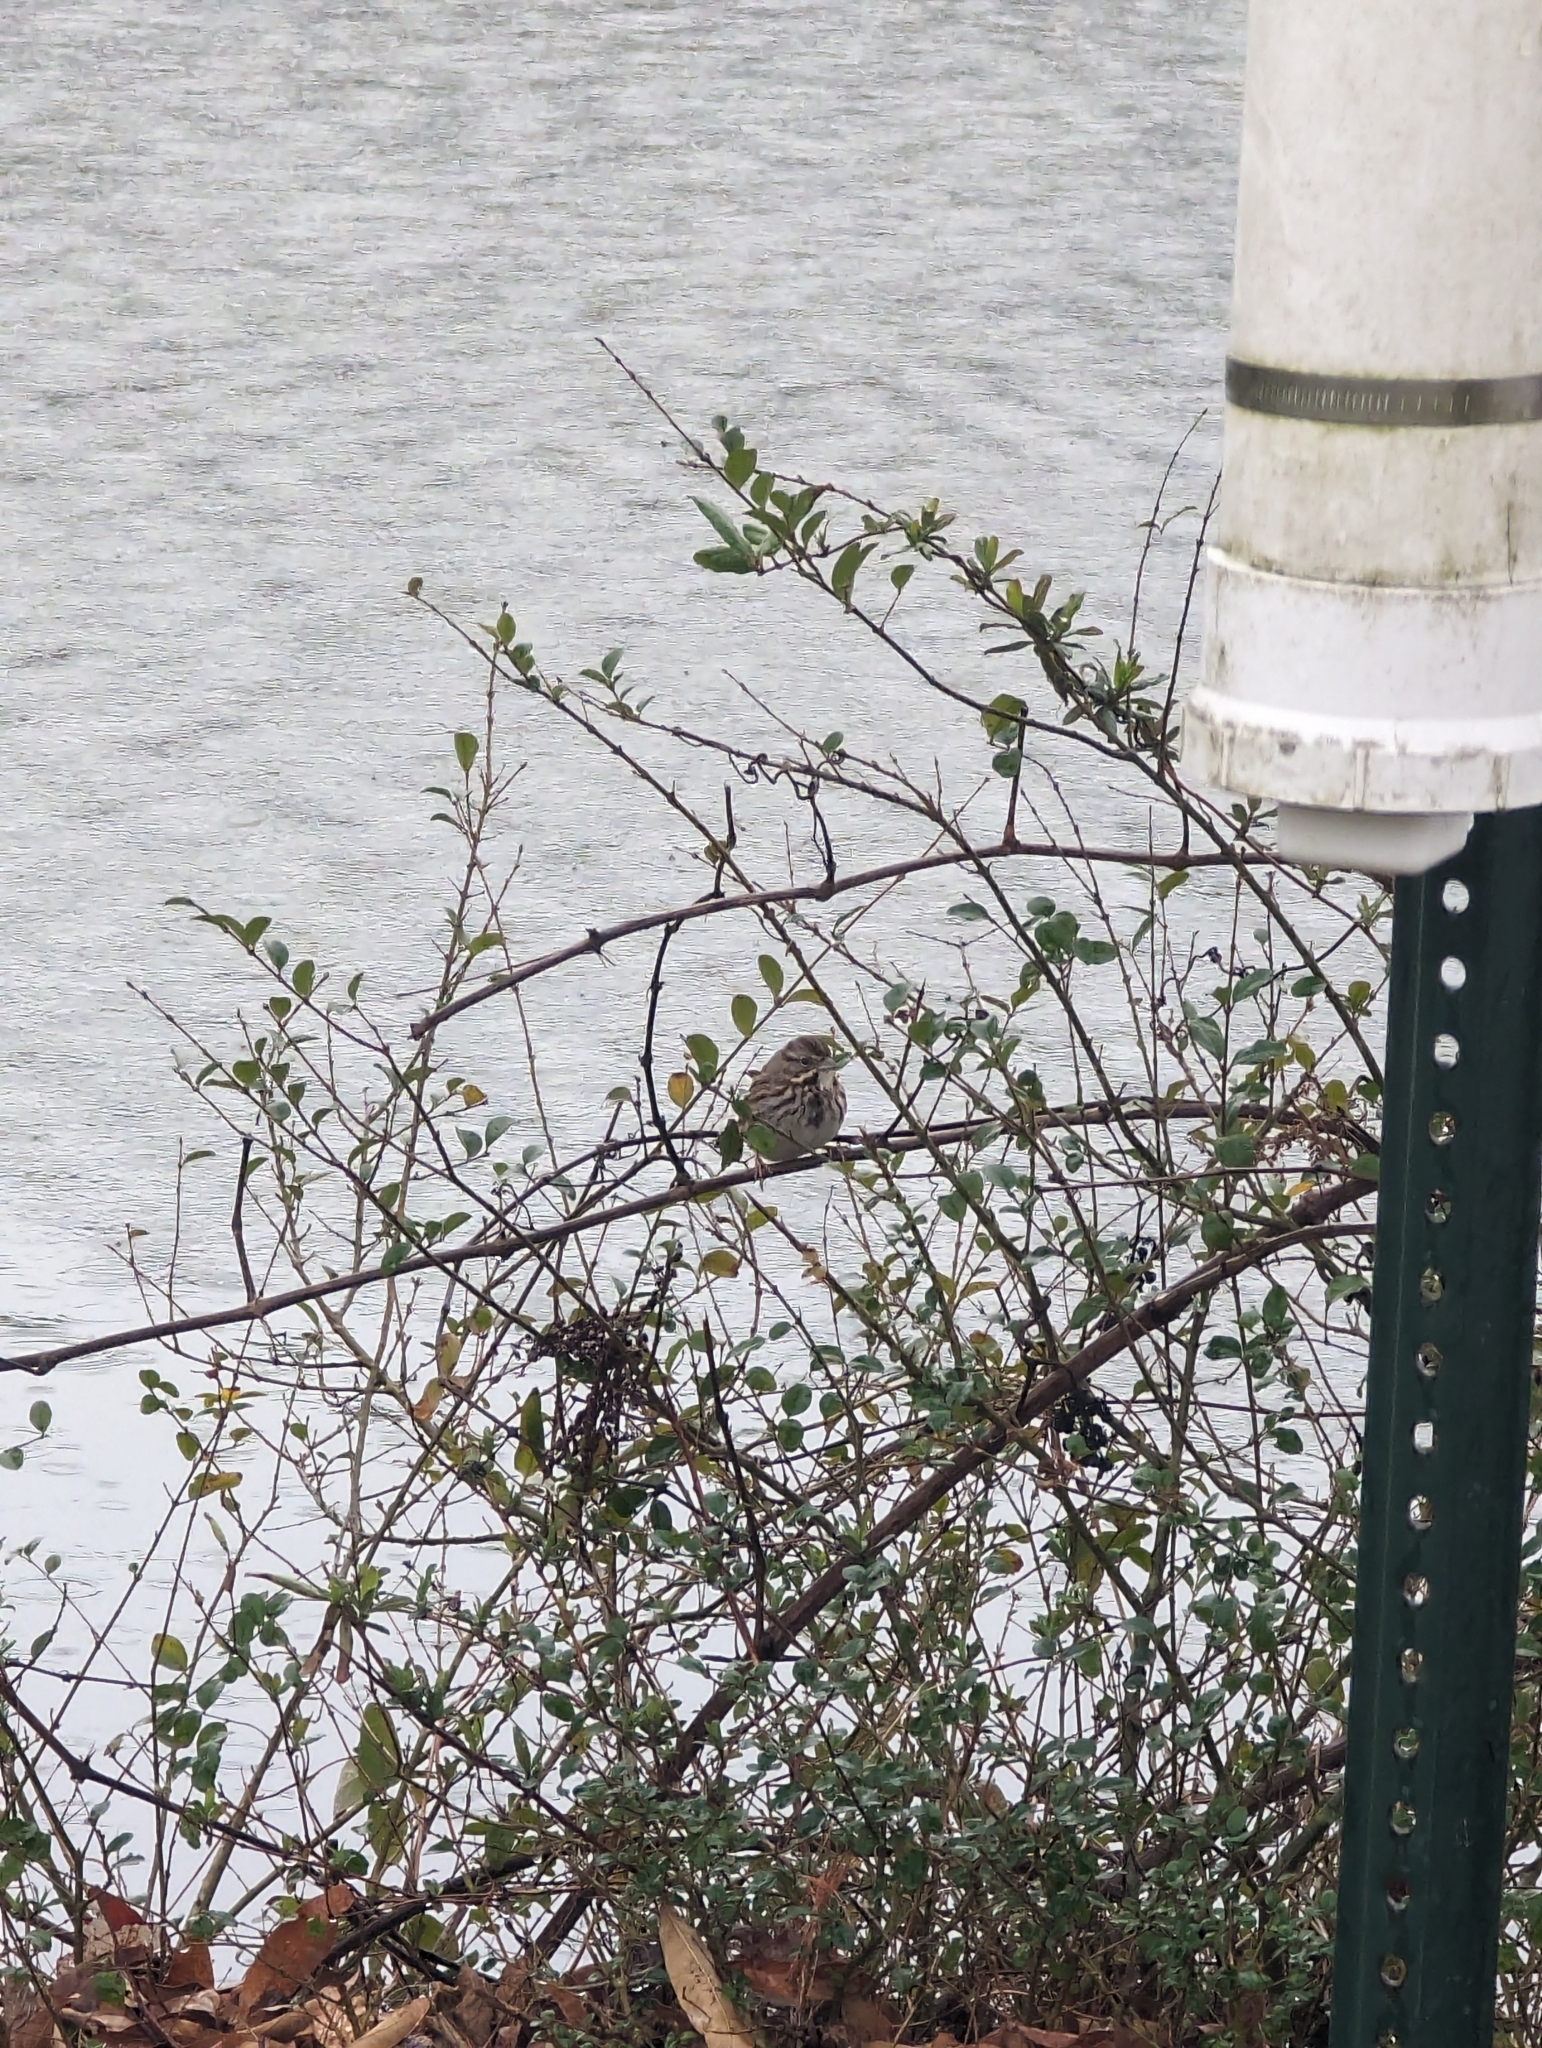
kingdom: Animalia
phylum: Chordata
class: Aves
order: Passeriformes
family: Passerellidae
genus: Melospiza
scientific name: Melospiza melodia
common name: Song sparrow
